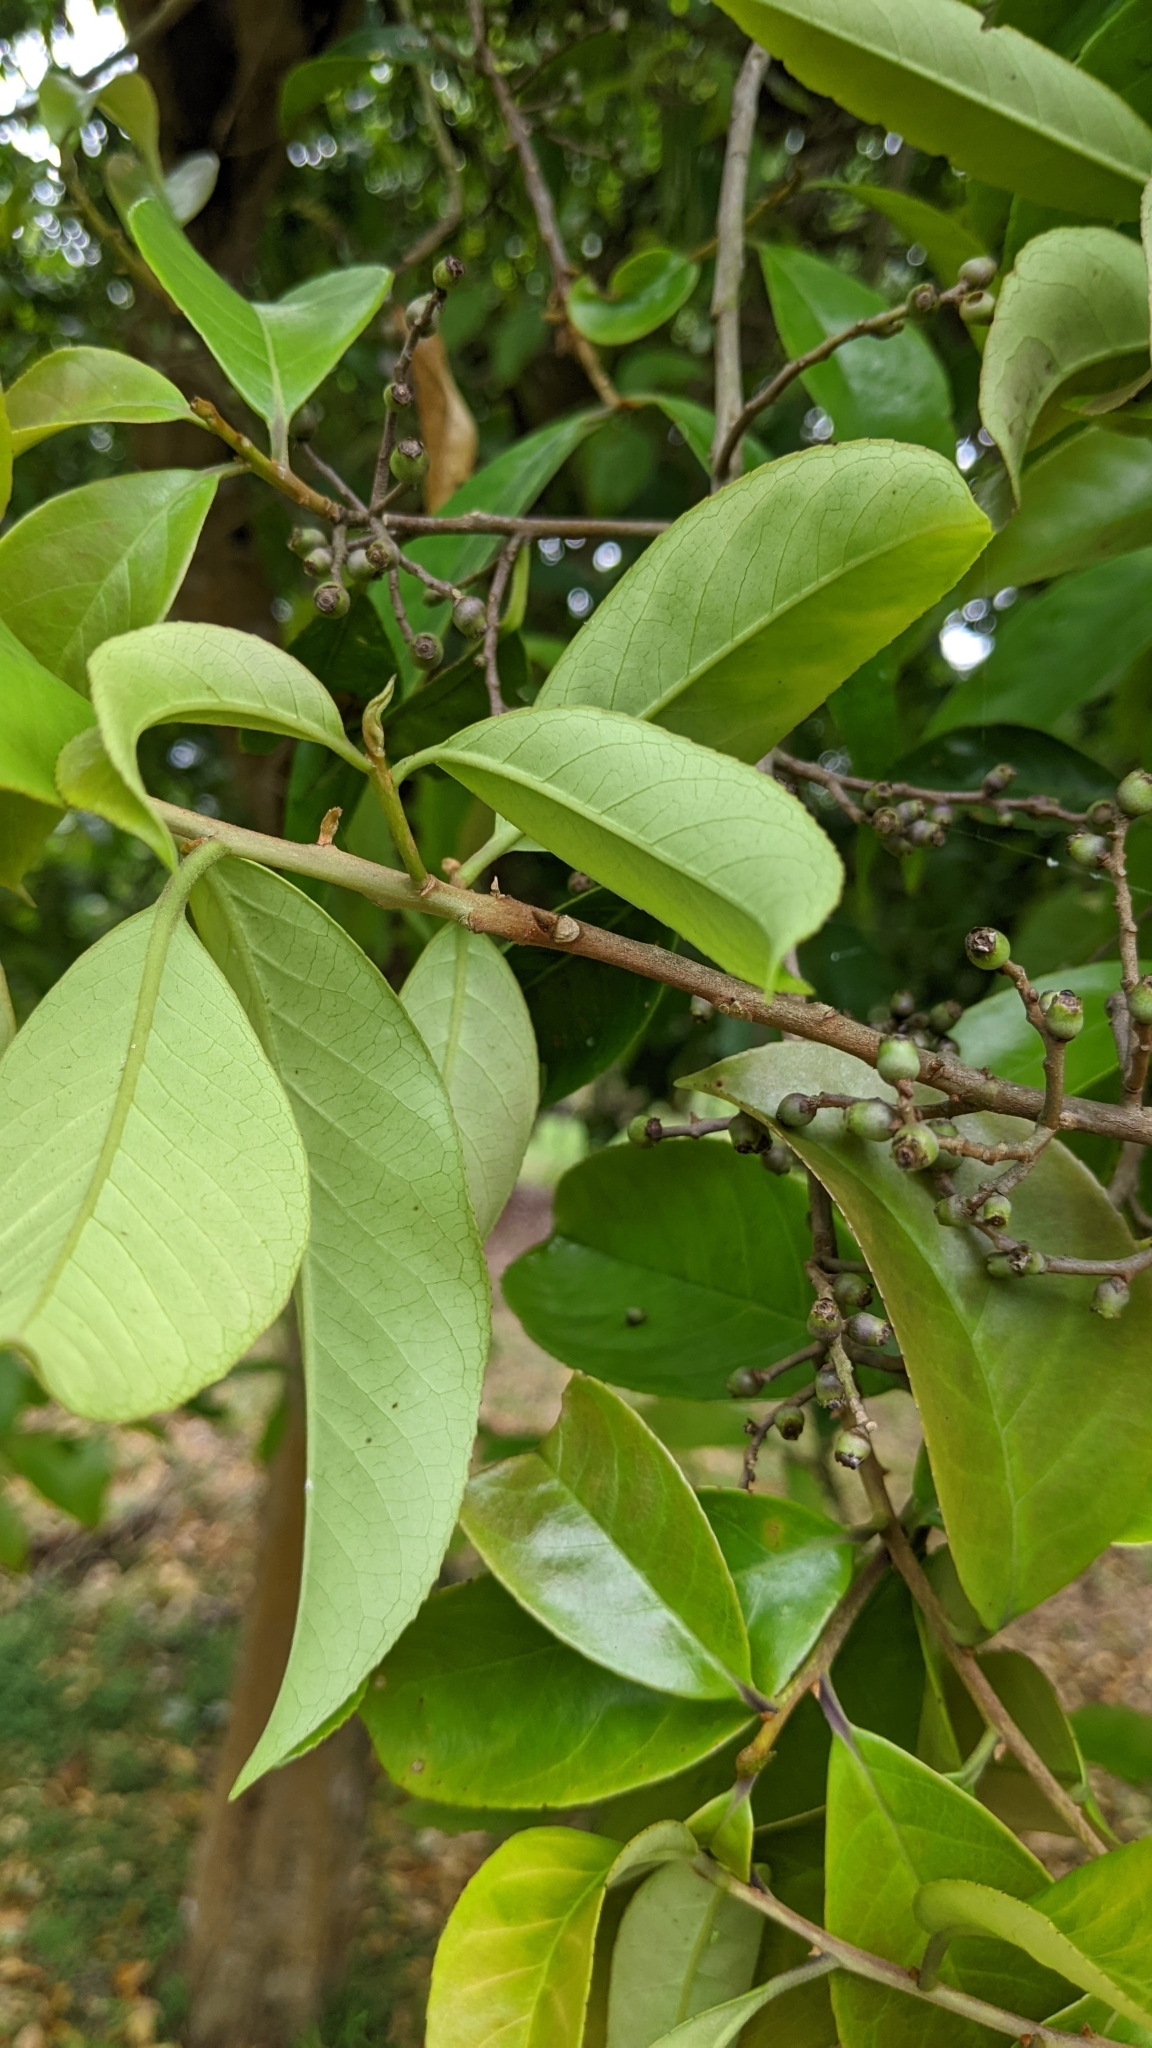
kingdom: Plantae
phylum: Tracheophyta
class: Magnoliopsida
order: Ericales
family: Symplocaceae
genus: Symplocos
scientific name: Symplocos acuminata
